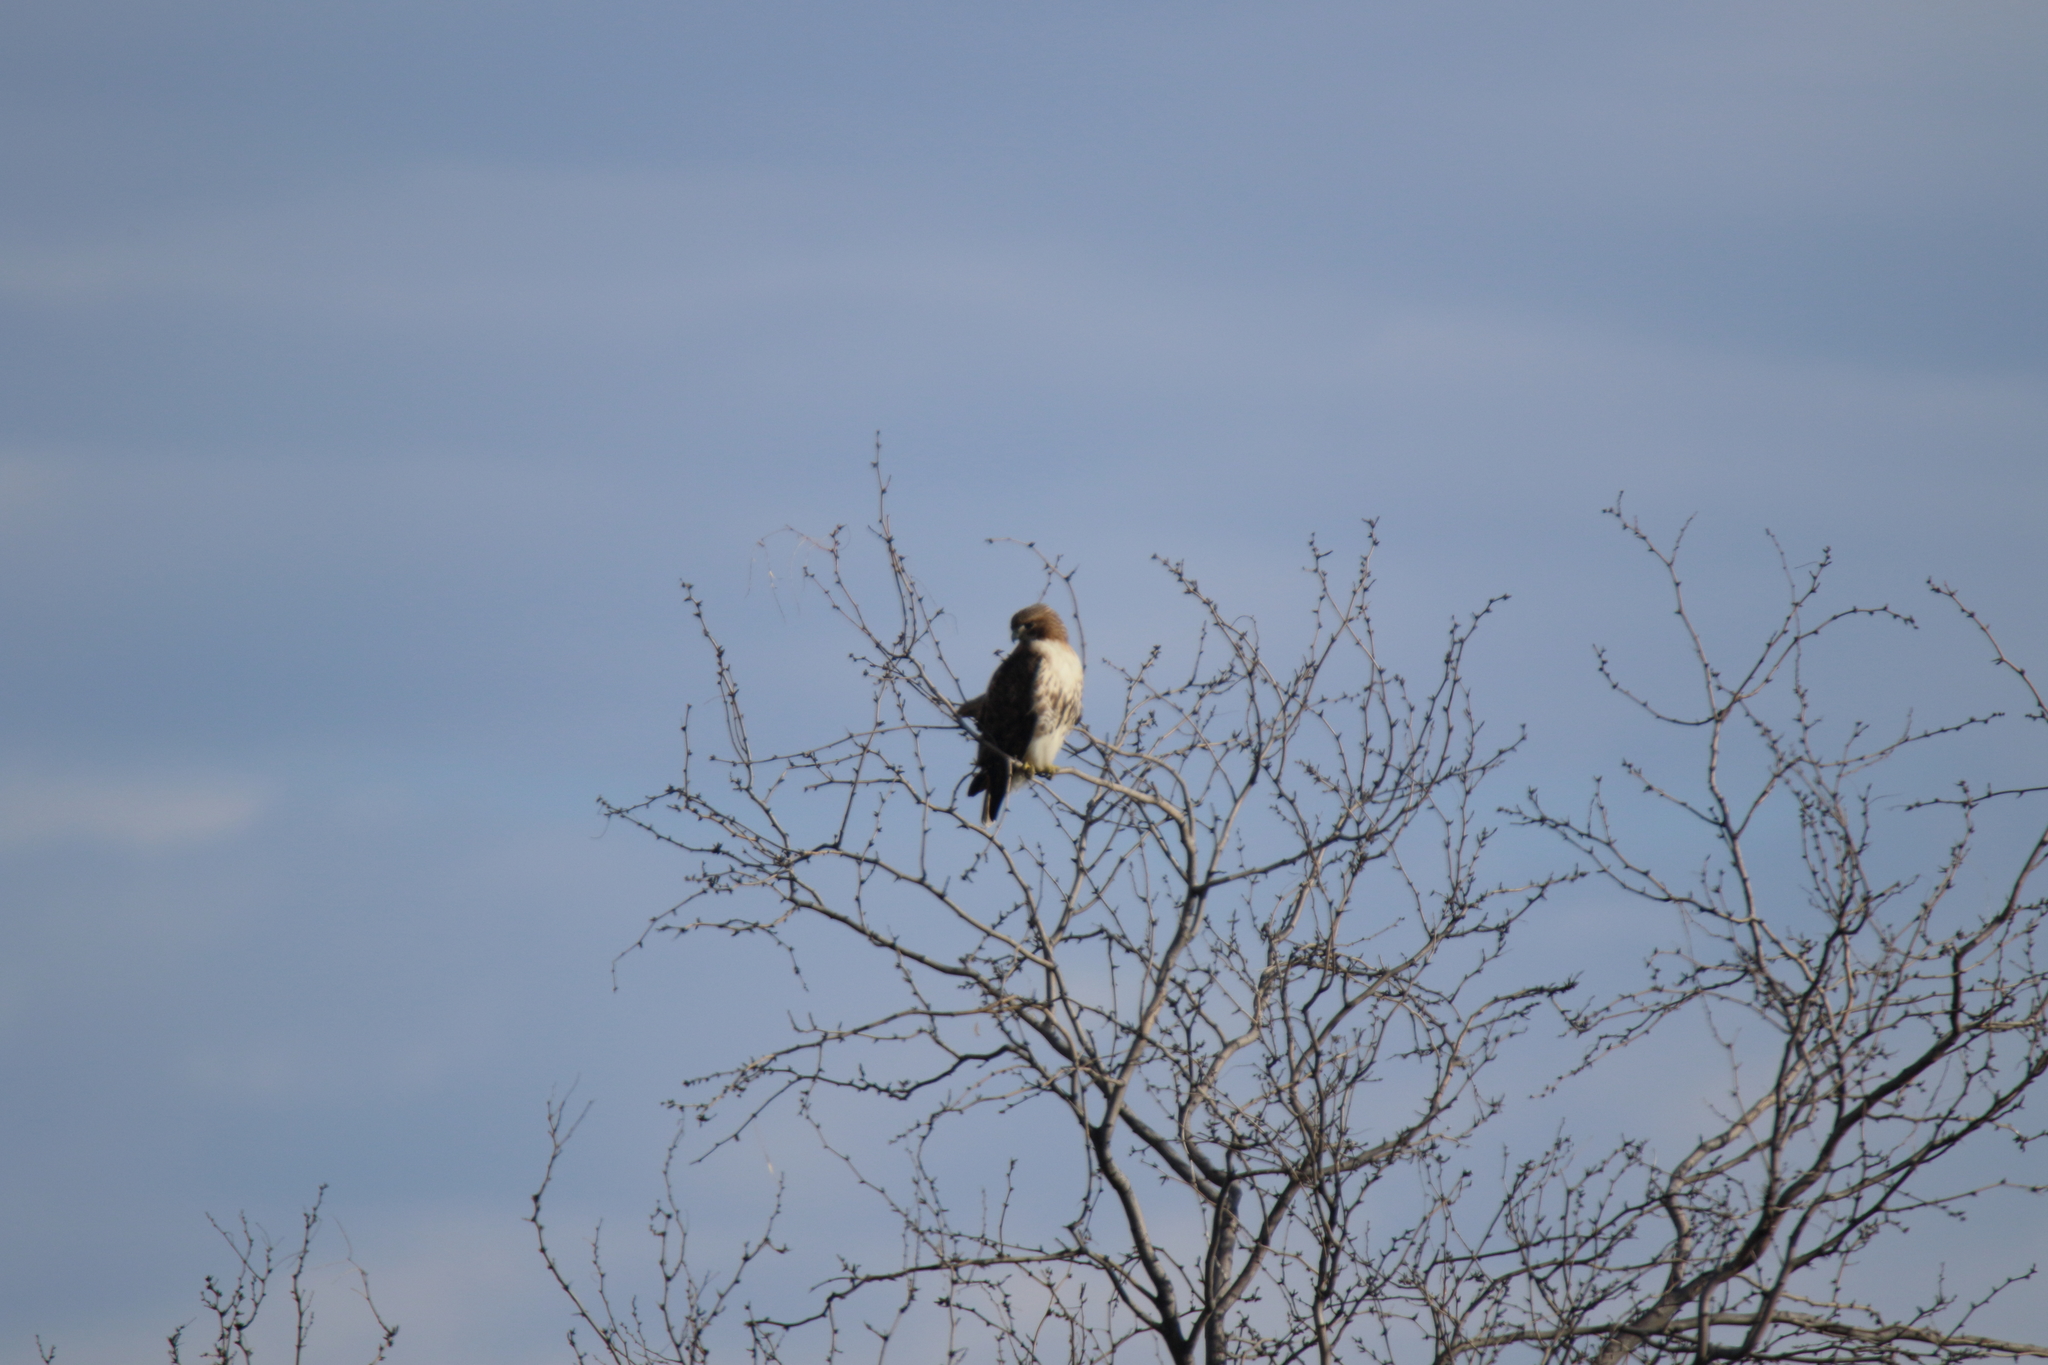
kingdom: Animalia
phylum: Chordata
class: Aves
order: Accipitriformes
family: Accipitridae
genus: Buteo
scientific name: Buteo jamaicensis
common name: Red-tailed hawk
